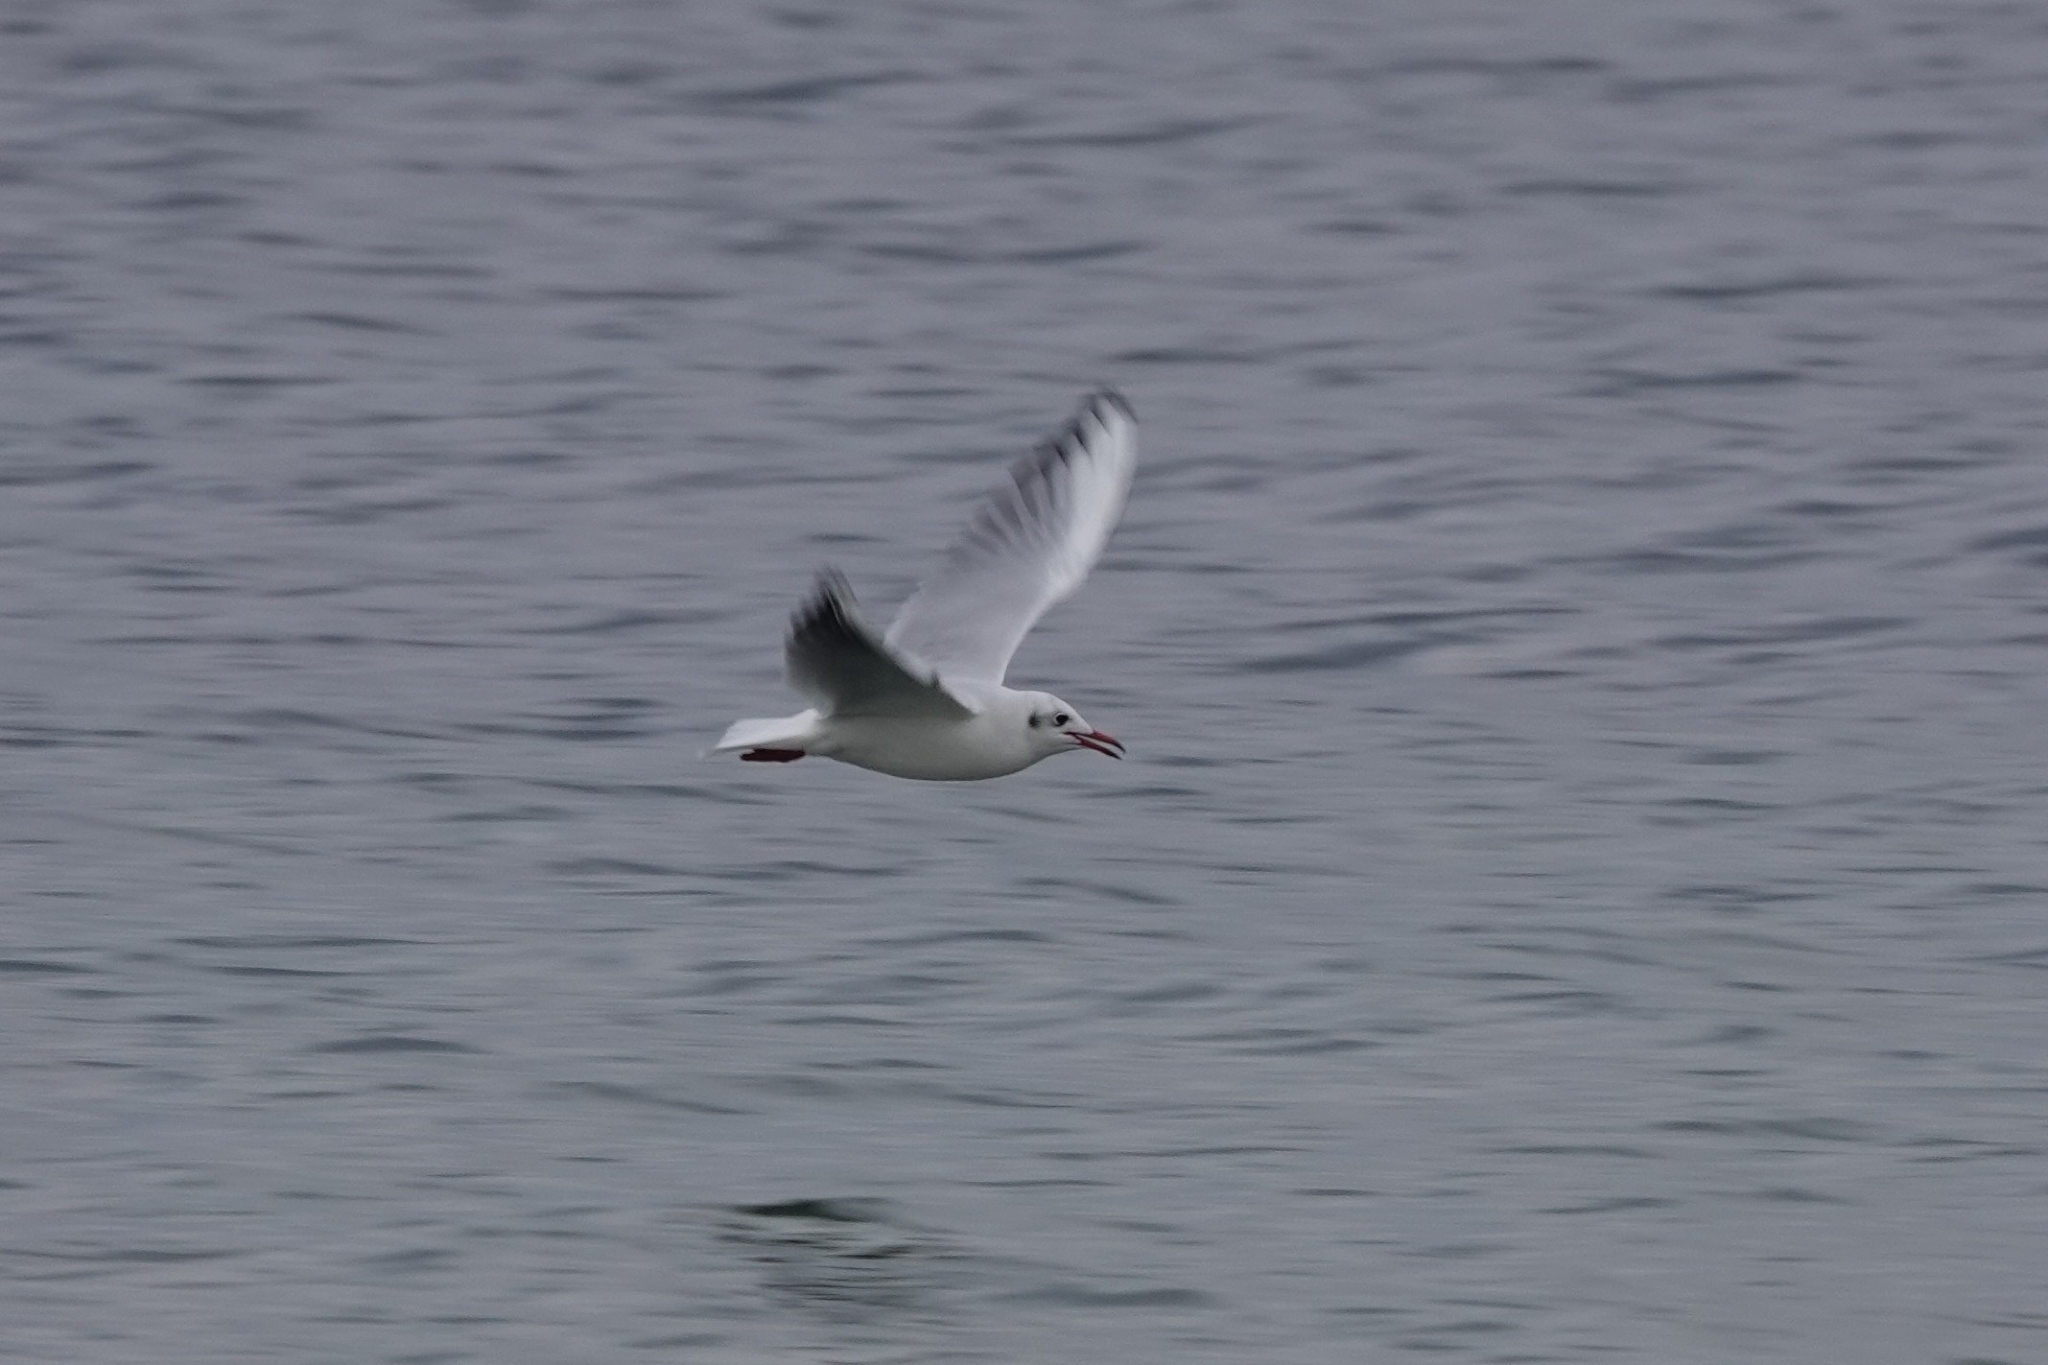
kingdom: Animalia
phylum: Chordata
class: Aves
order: Charadriiformes
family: Laridae
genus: Chroicocephalus
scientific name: Chroicocephalus ridibundus
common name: Black-headed gull
